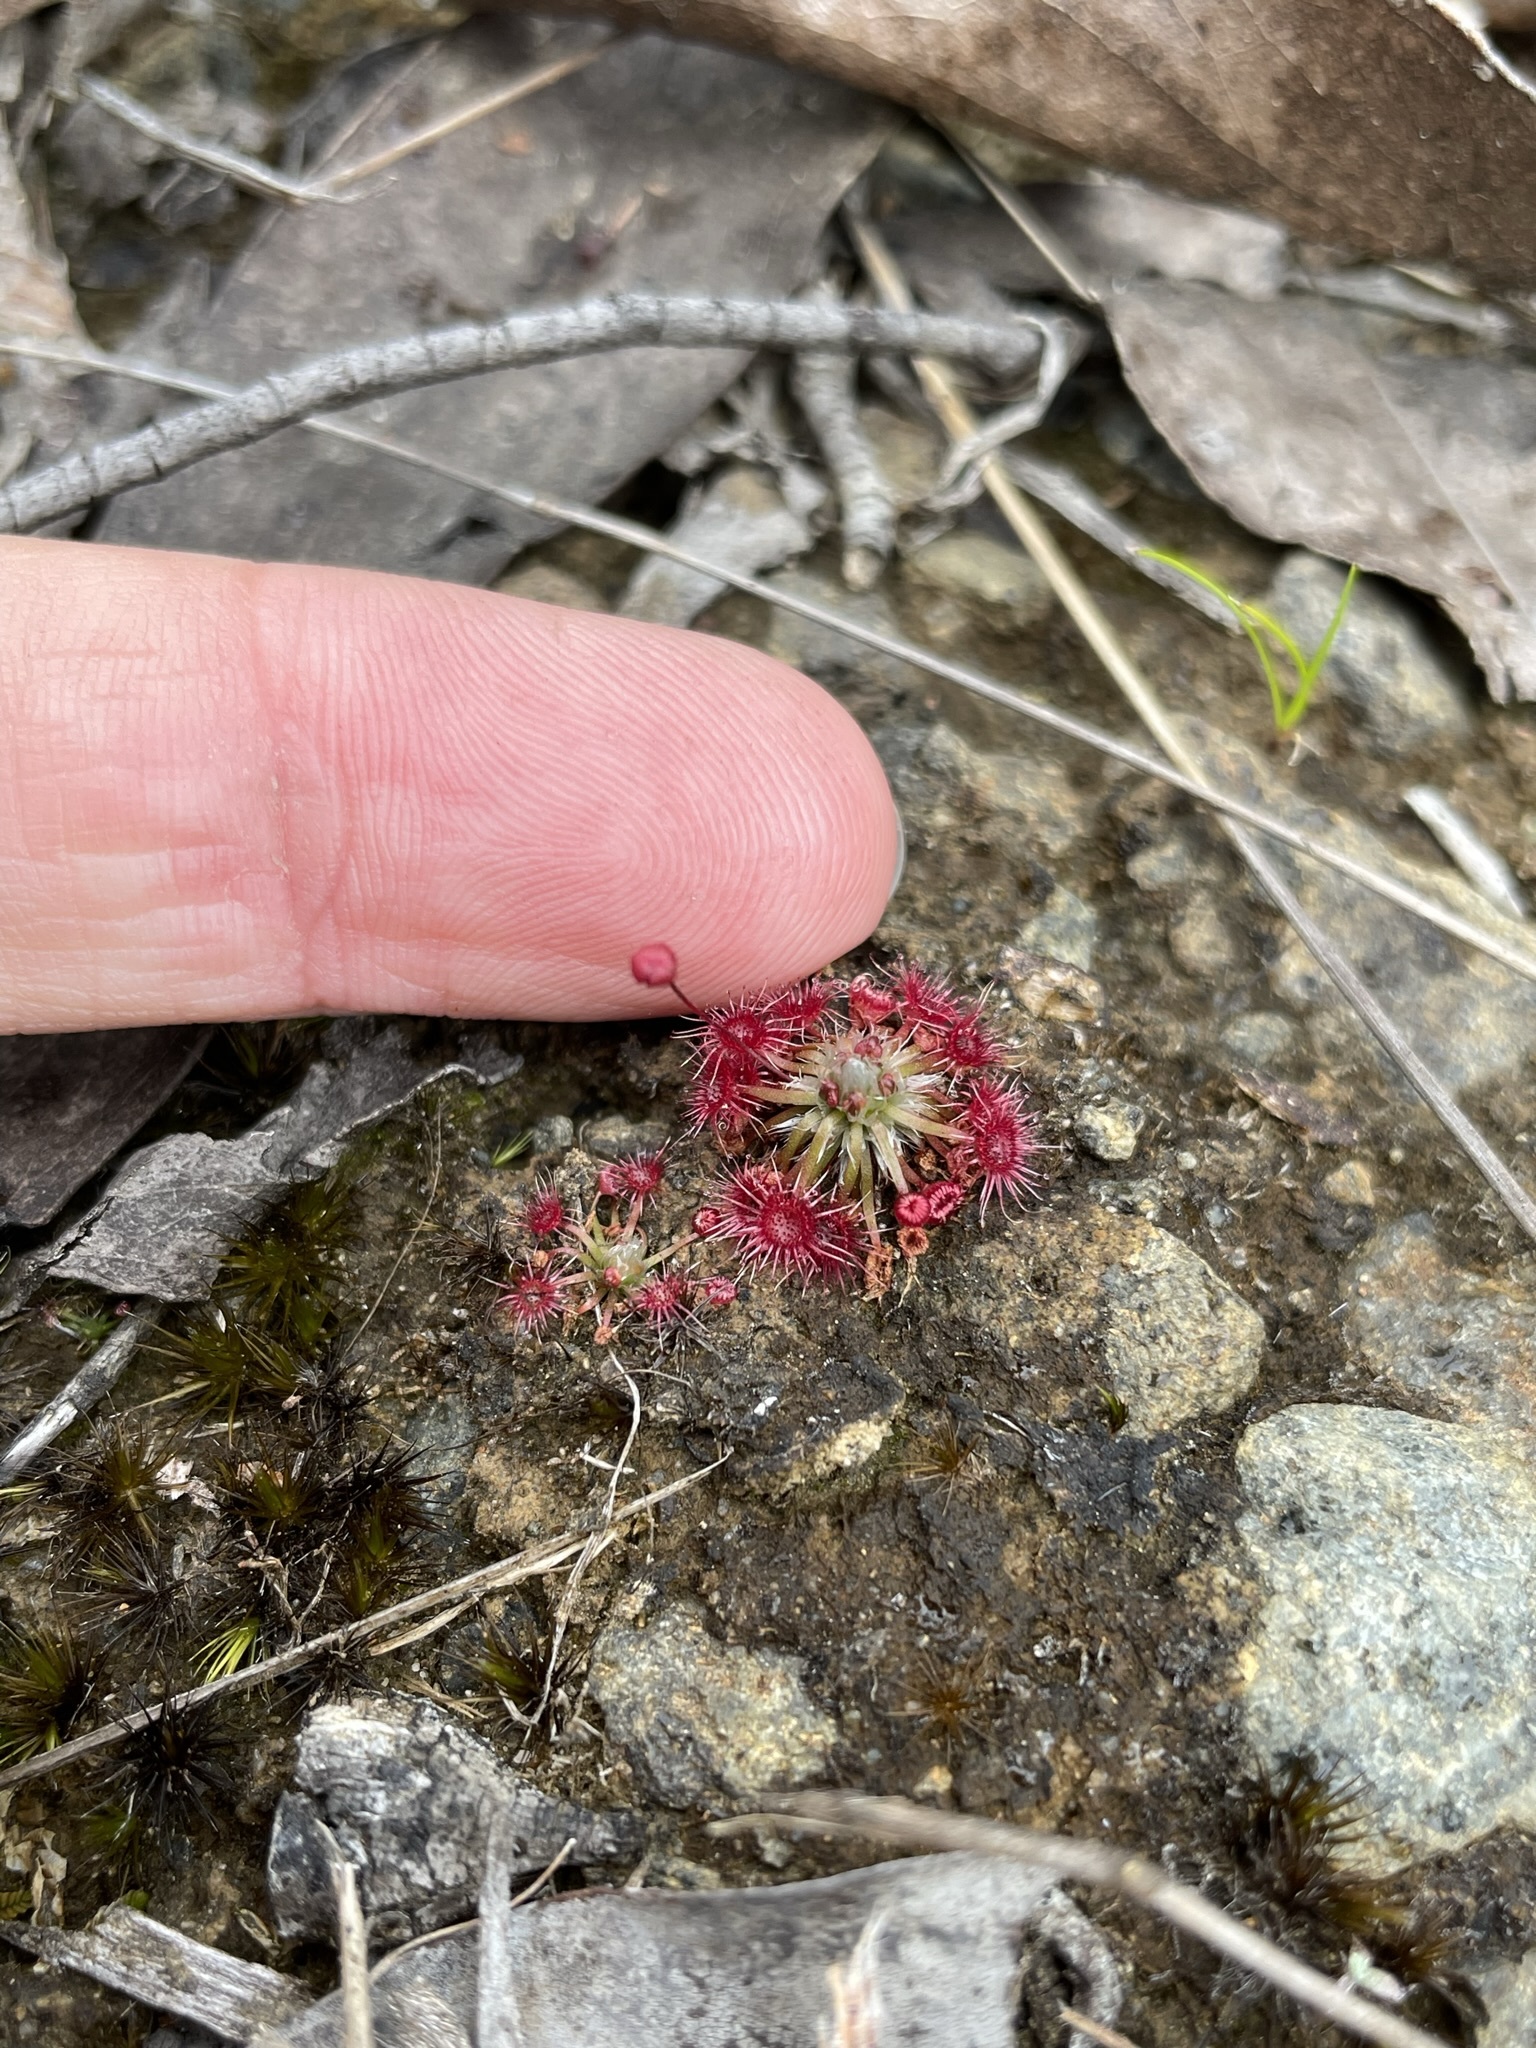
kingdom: Plantae
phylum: Tracheophyta
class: Magnoliopsida
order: Caryophyllales
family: Droseraceae
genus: Drosera
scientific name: Drosera pygmaea
